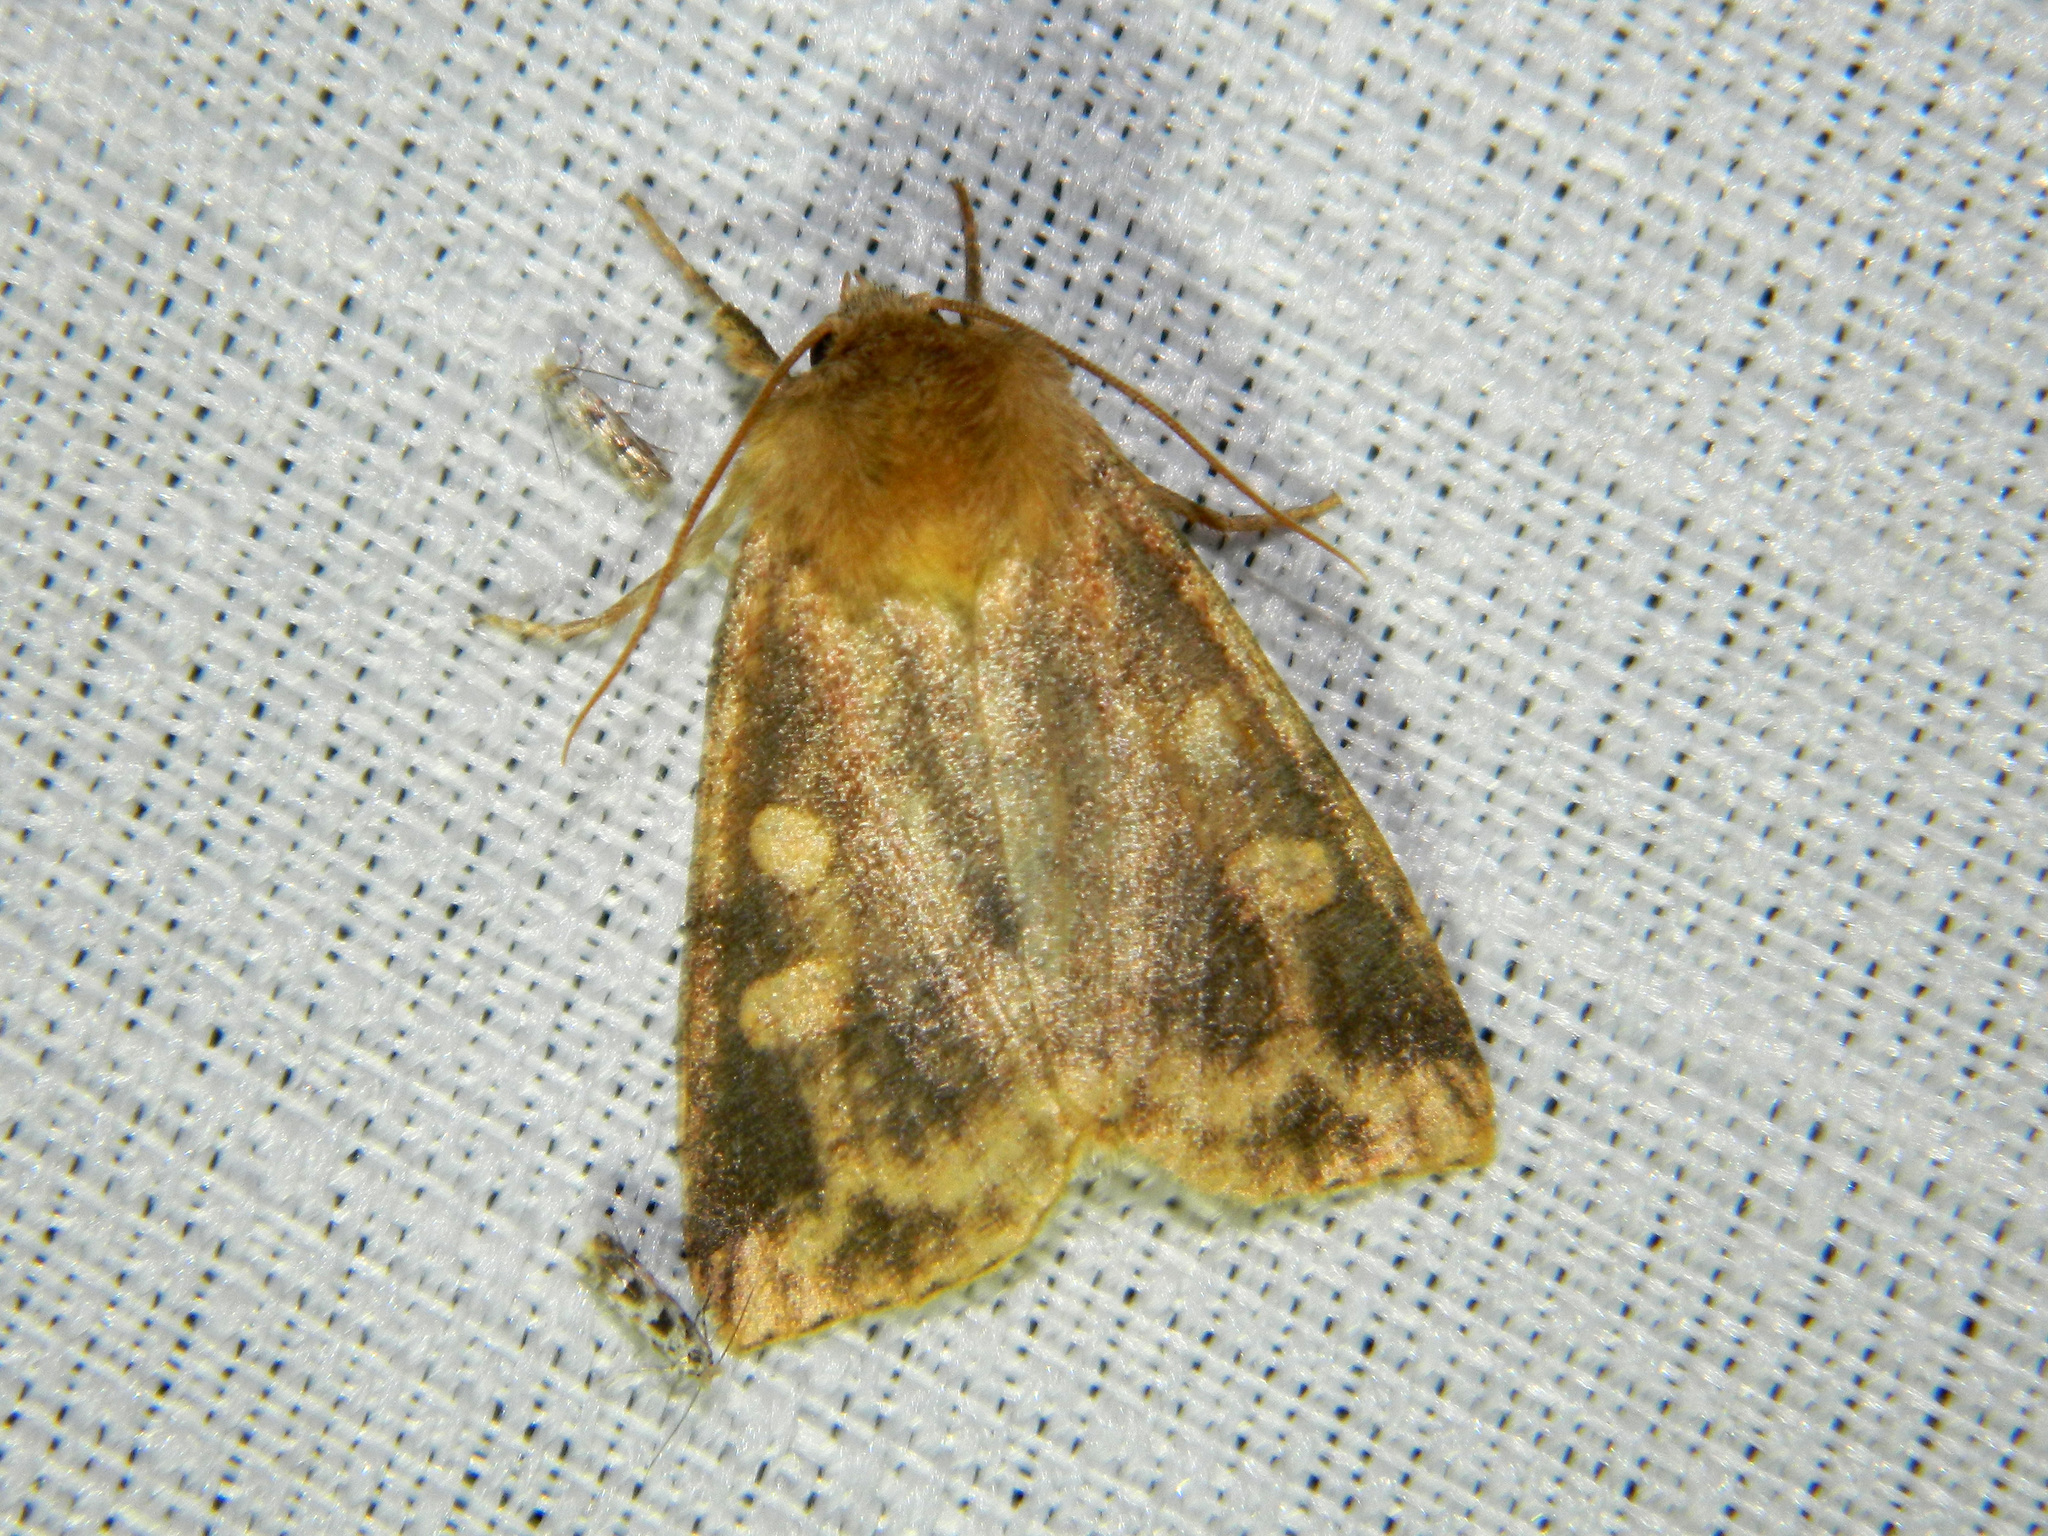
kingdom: Animalia
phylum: Arthropoda
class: Insecta
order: Lepidoptera
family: Noctuidae
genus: Enargia
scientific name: Enargia decolor
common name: Aspen twoleaf tier moth
